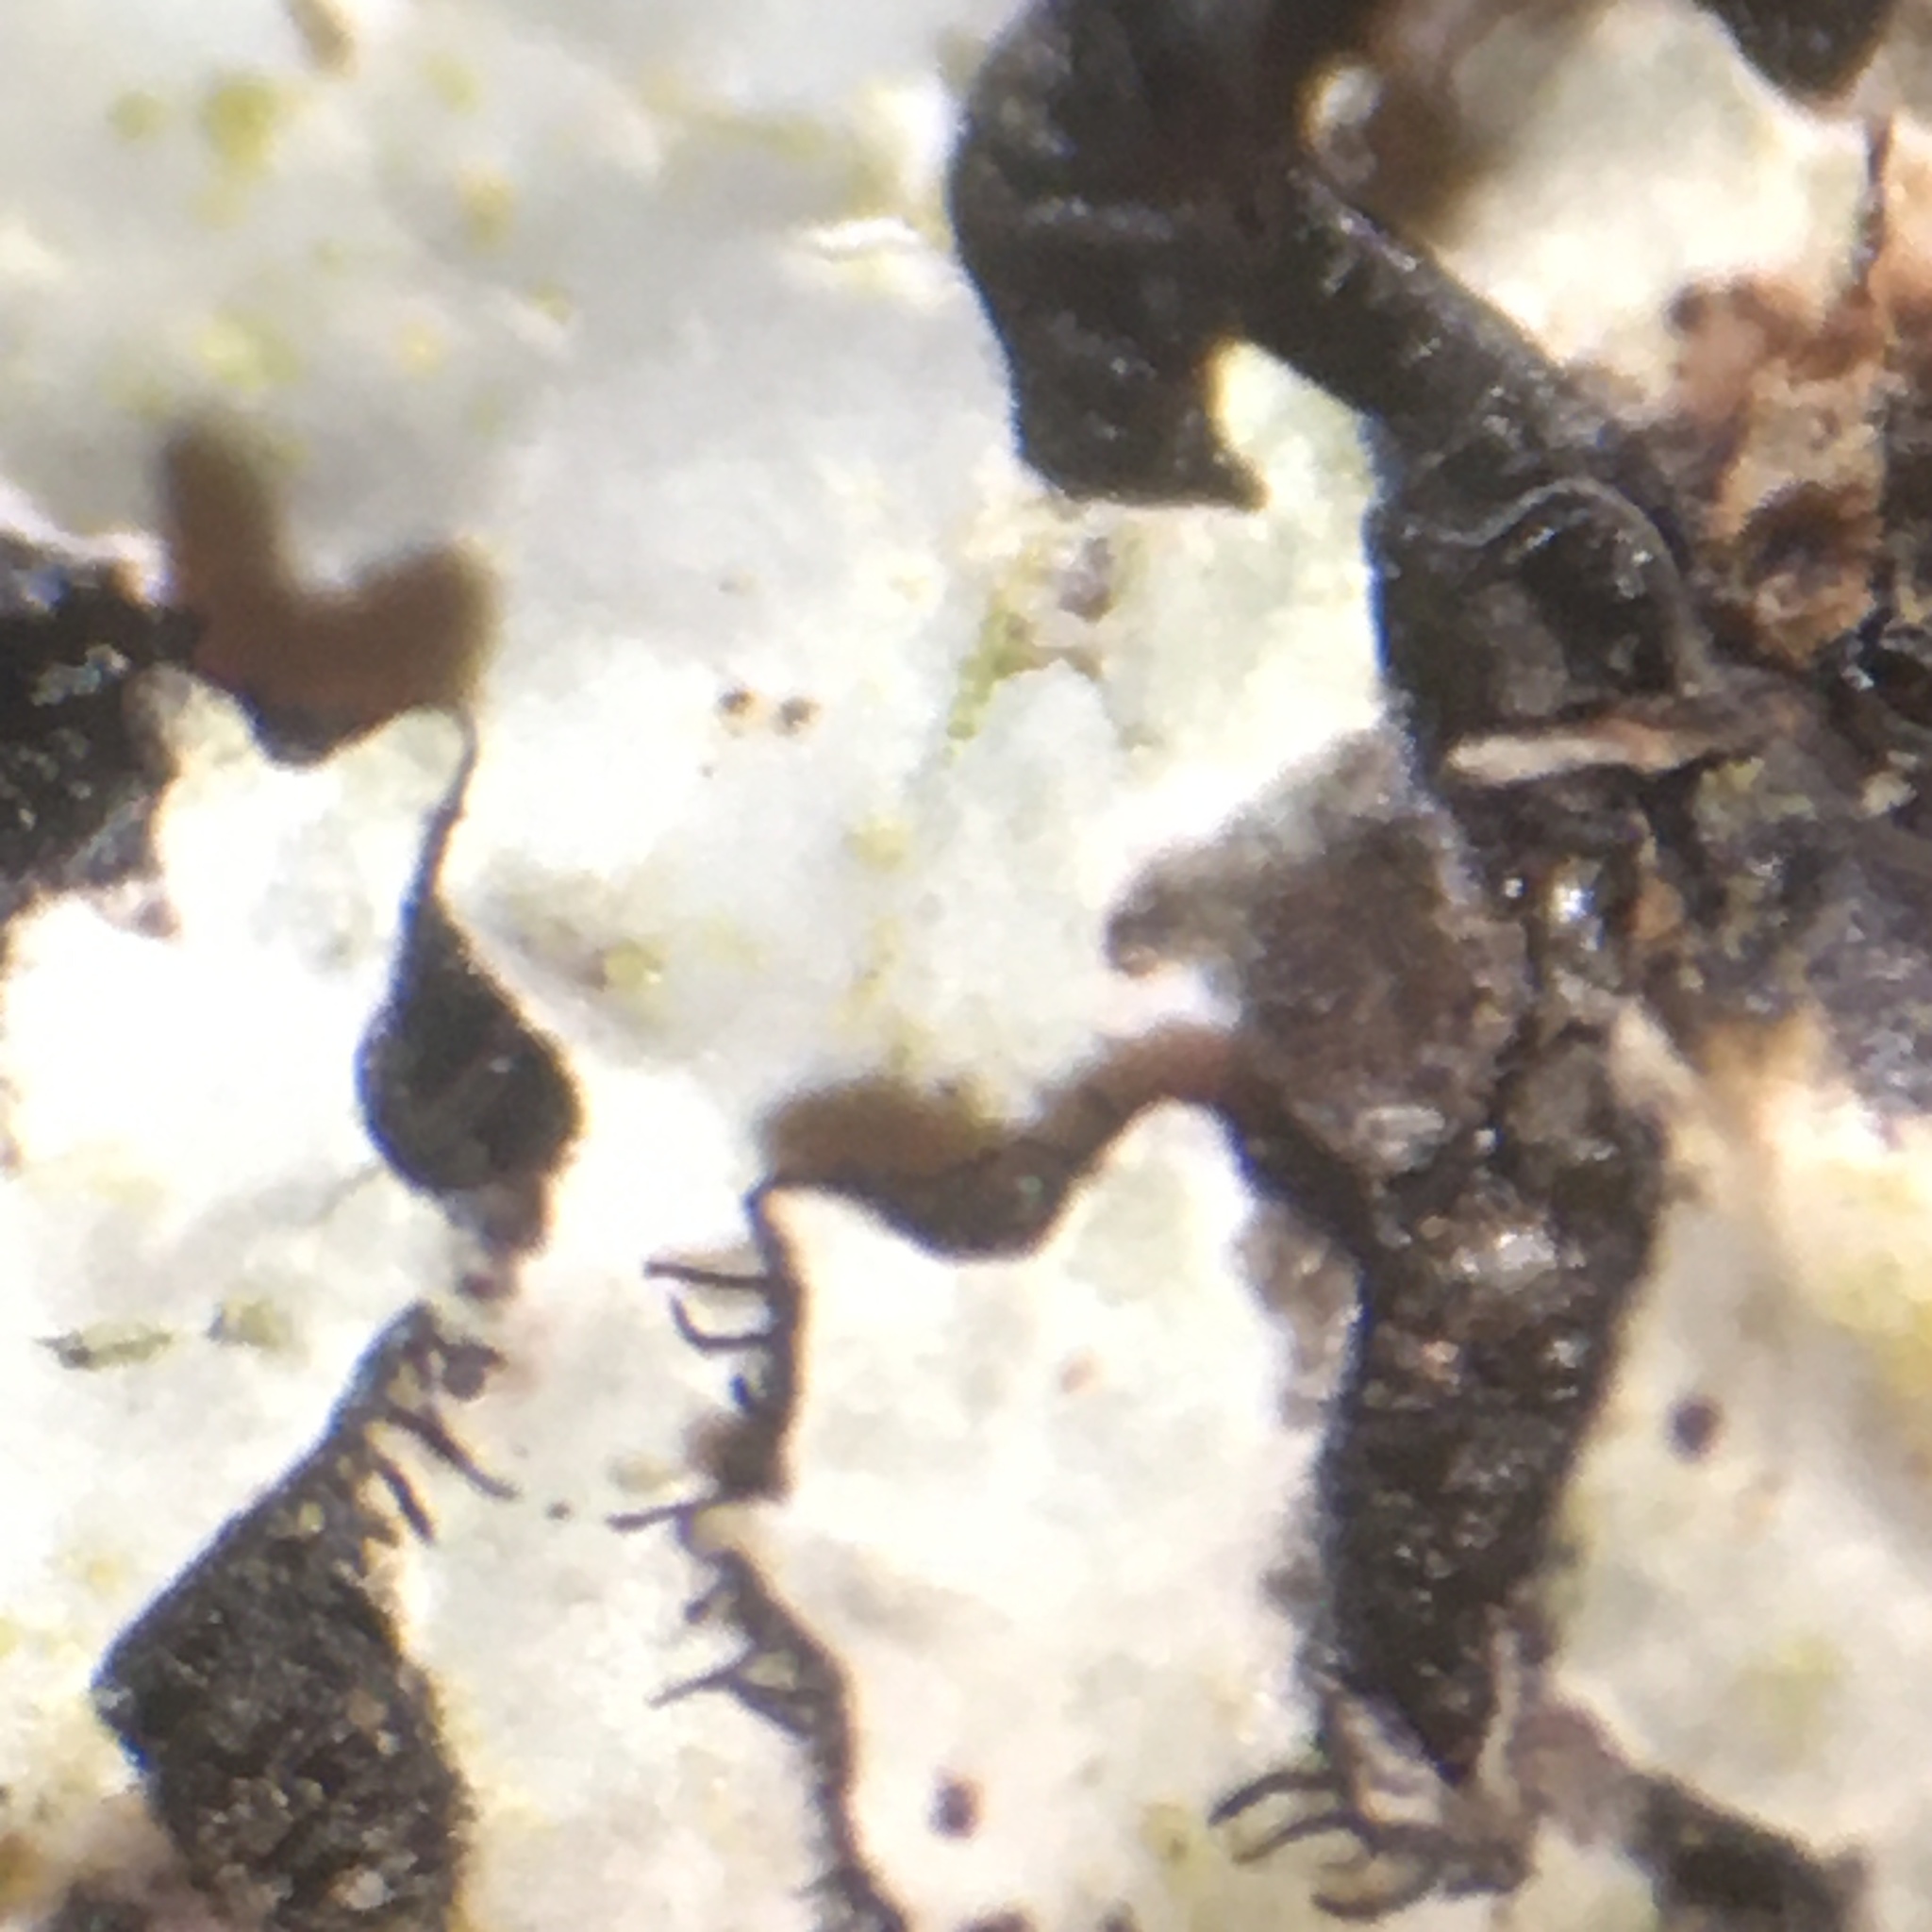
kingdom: Fungi
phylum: Ascomycota
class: Lecanoromycetes
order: Lecanorales
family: Parmeliaceae
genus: Parmelia
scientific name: Parmelia sulcata
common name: Netted shield lichen
